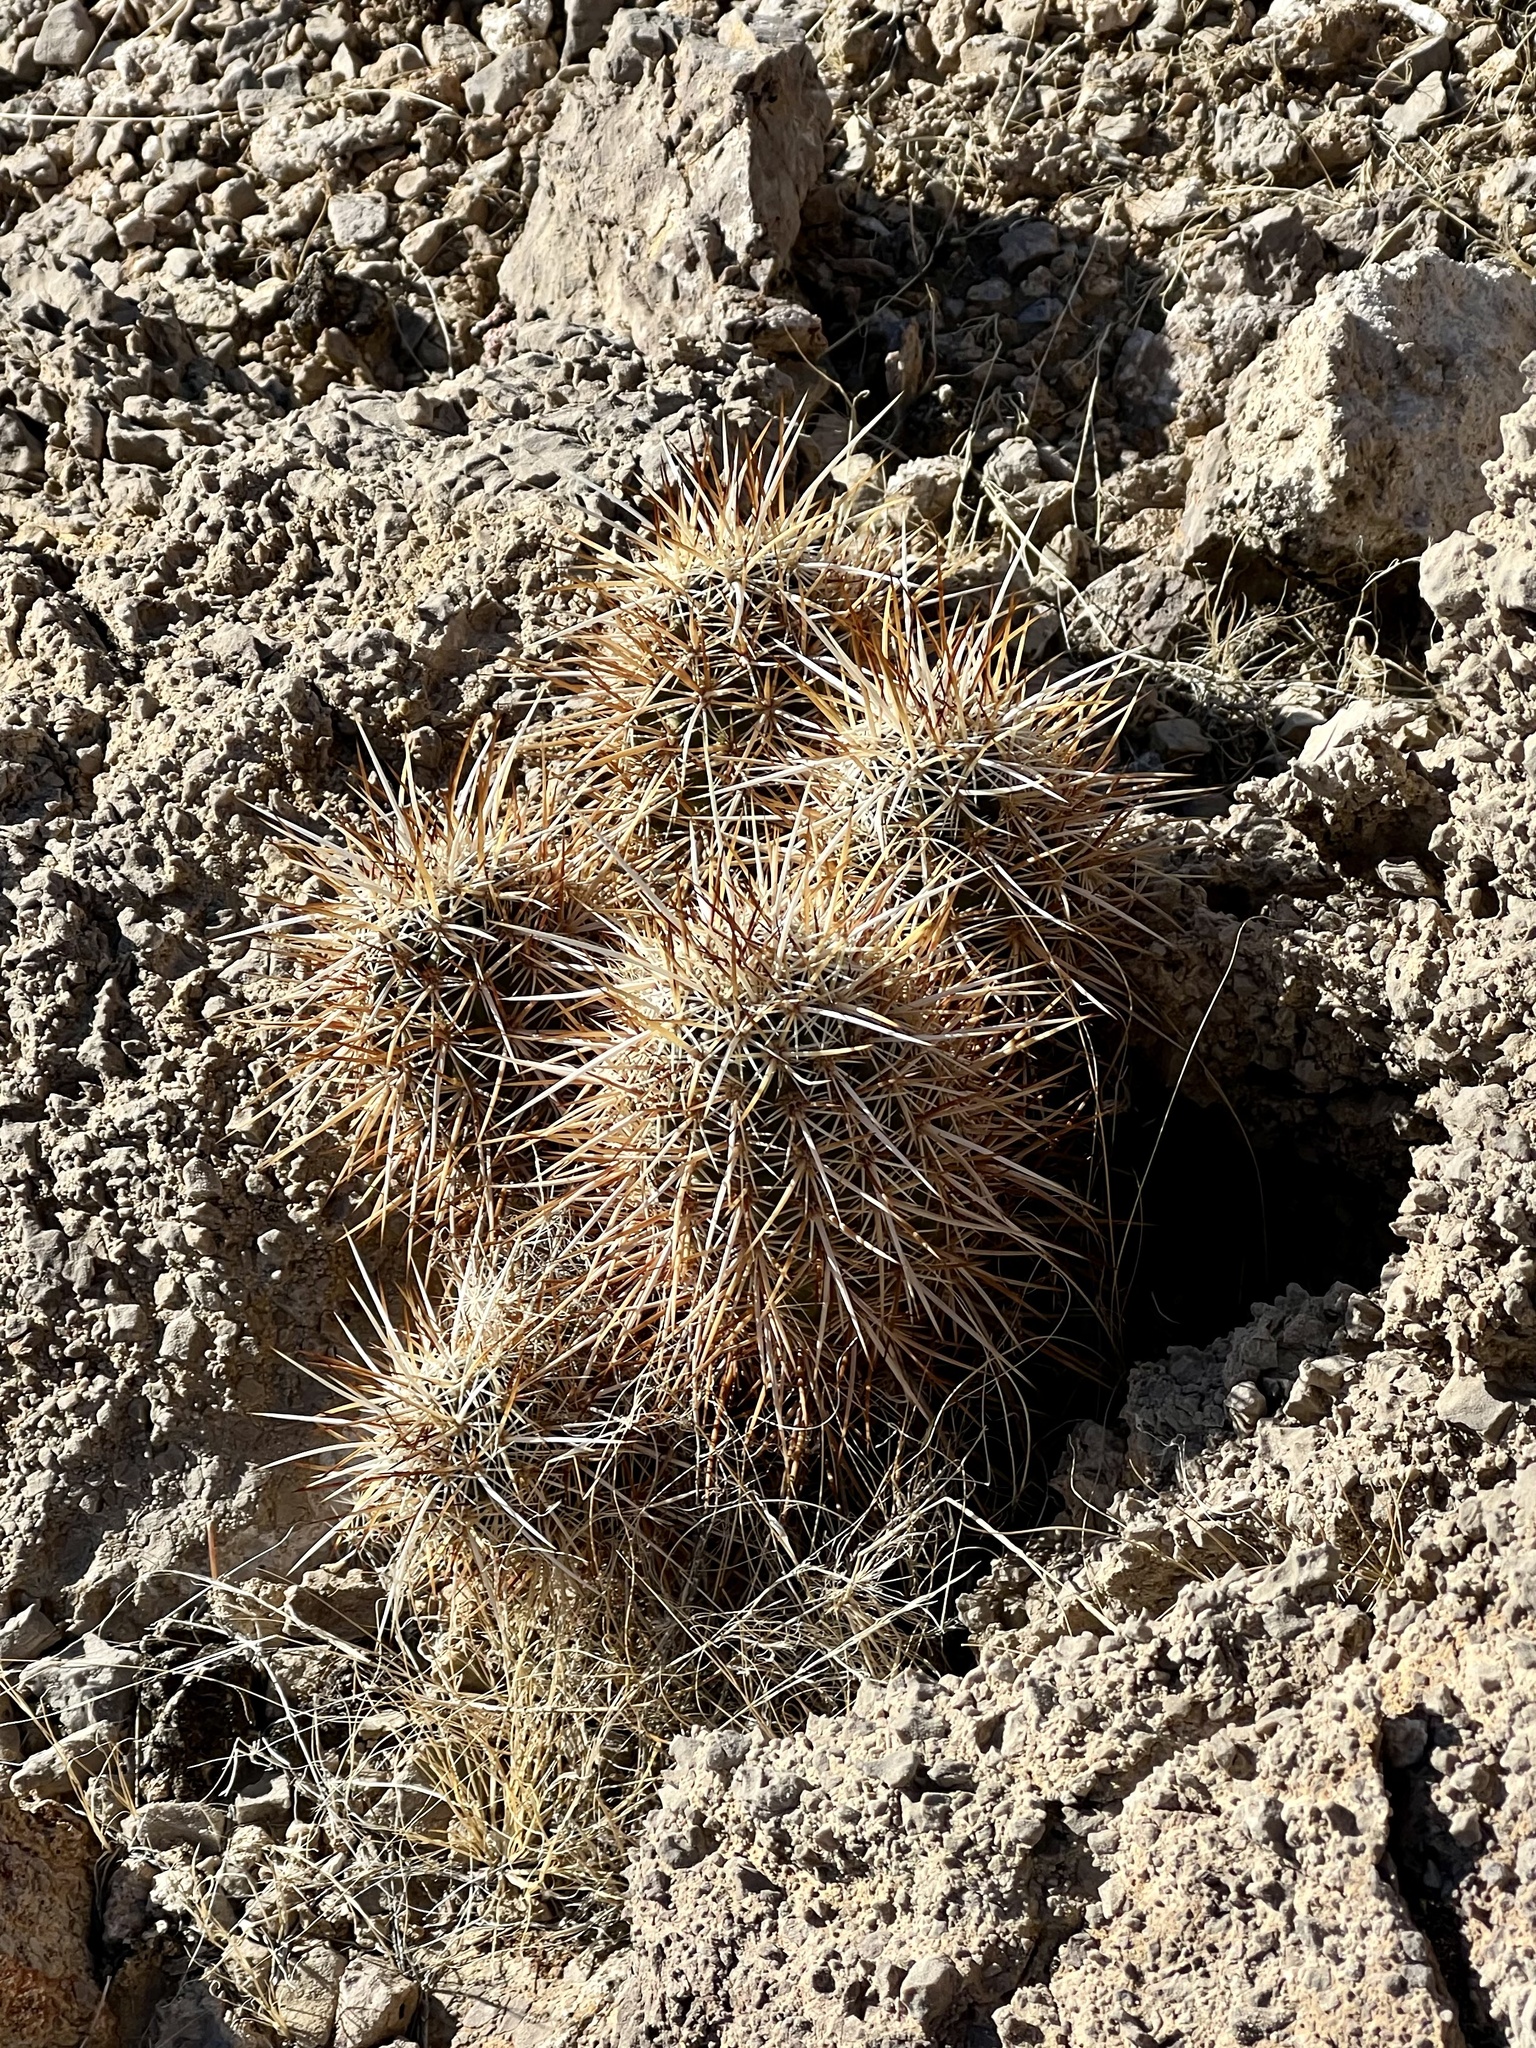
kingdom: Plantae
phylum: Tracheophyta
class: Magnoliopsida
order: Caryophyllales
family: Cactaceae
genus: Echinocereus
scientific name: Echinocereus engelmannii
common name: Engelmann's hedgehog cactus
